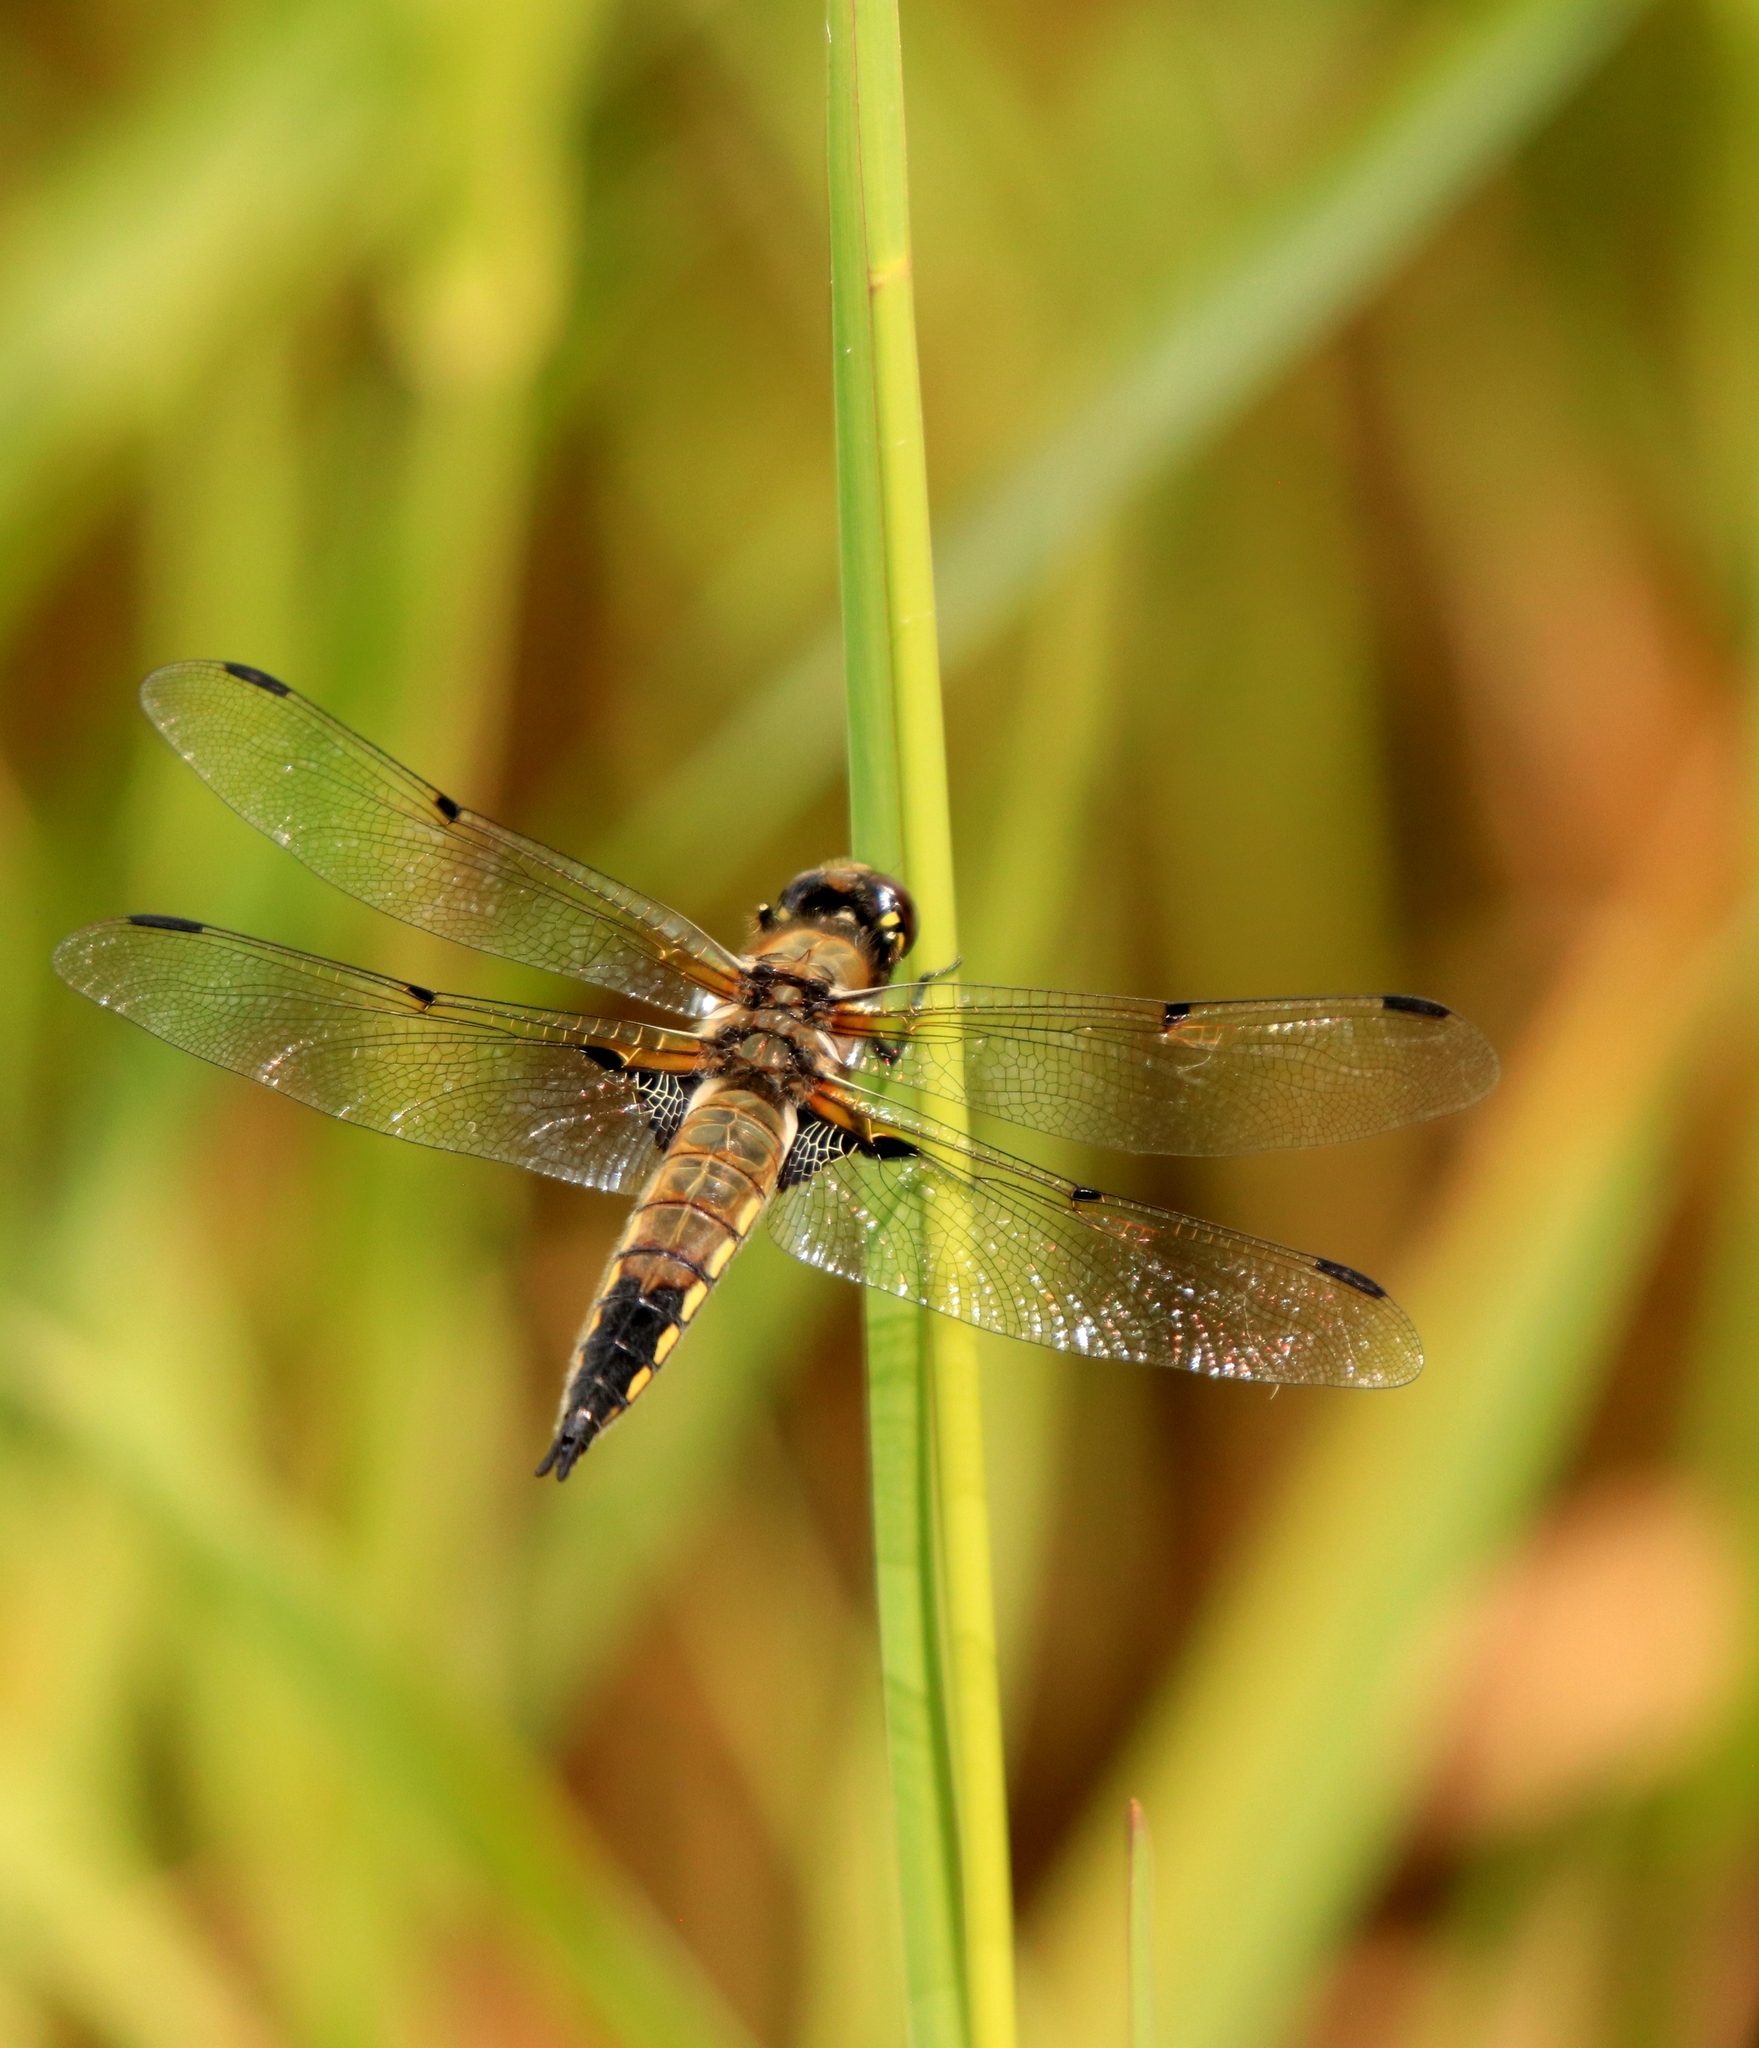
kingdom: Animalia
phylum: Arthropoda
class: Insecta
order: Odonata
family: Libellulidae
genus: Libellula
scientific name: Libellula quadrimaculata
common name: Four-spotted chaser
